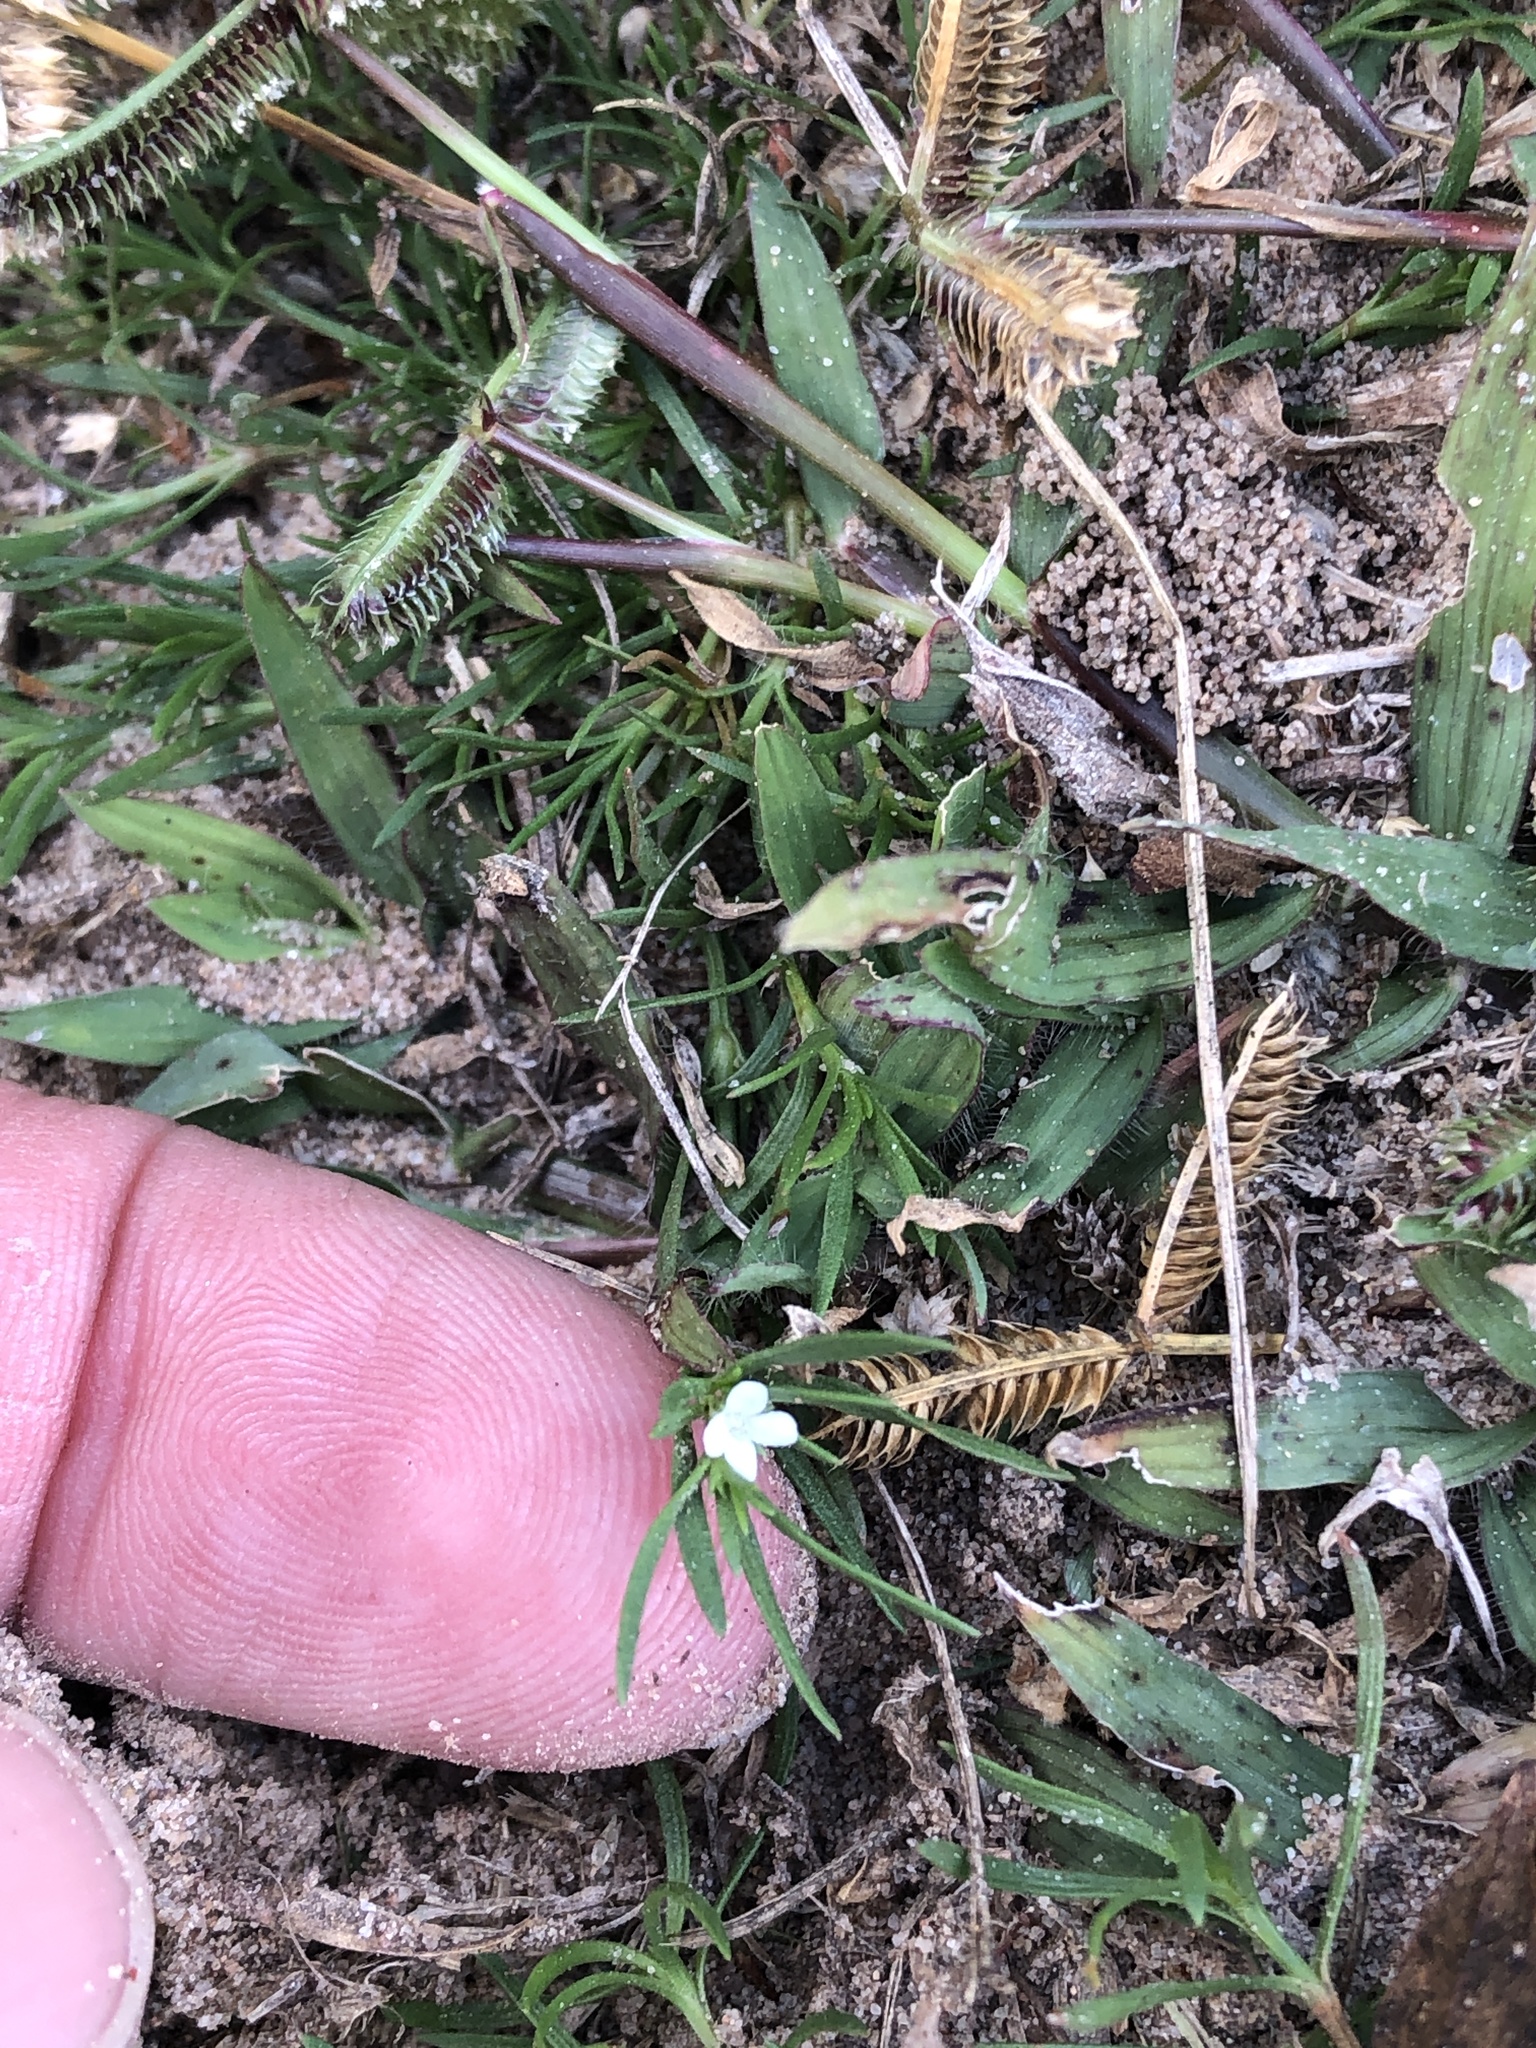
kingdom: Plantae
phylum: Tracheophyta
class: Magnoliopsida
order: Lamiales
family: Tetrachondraceae
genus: Polypremum
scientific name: Polypremum procumbens
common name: Juniper-leaf
